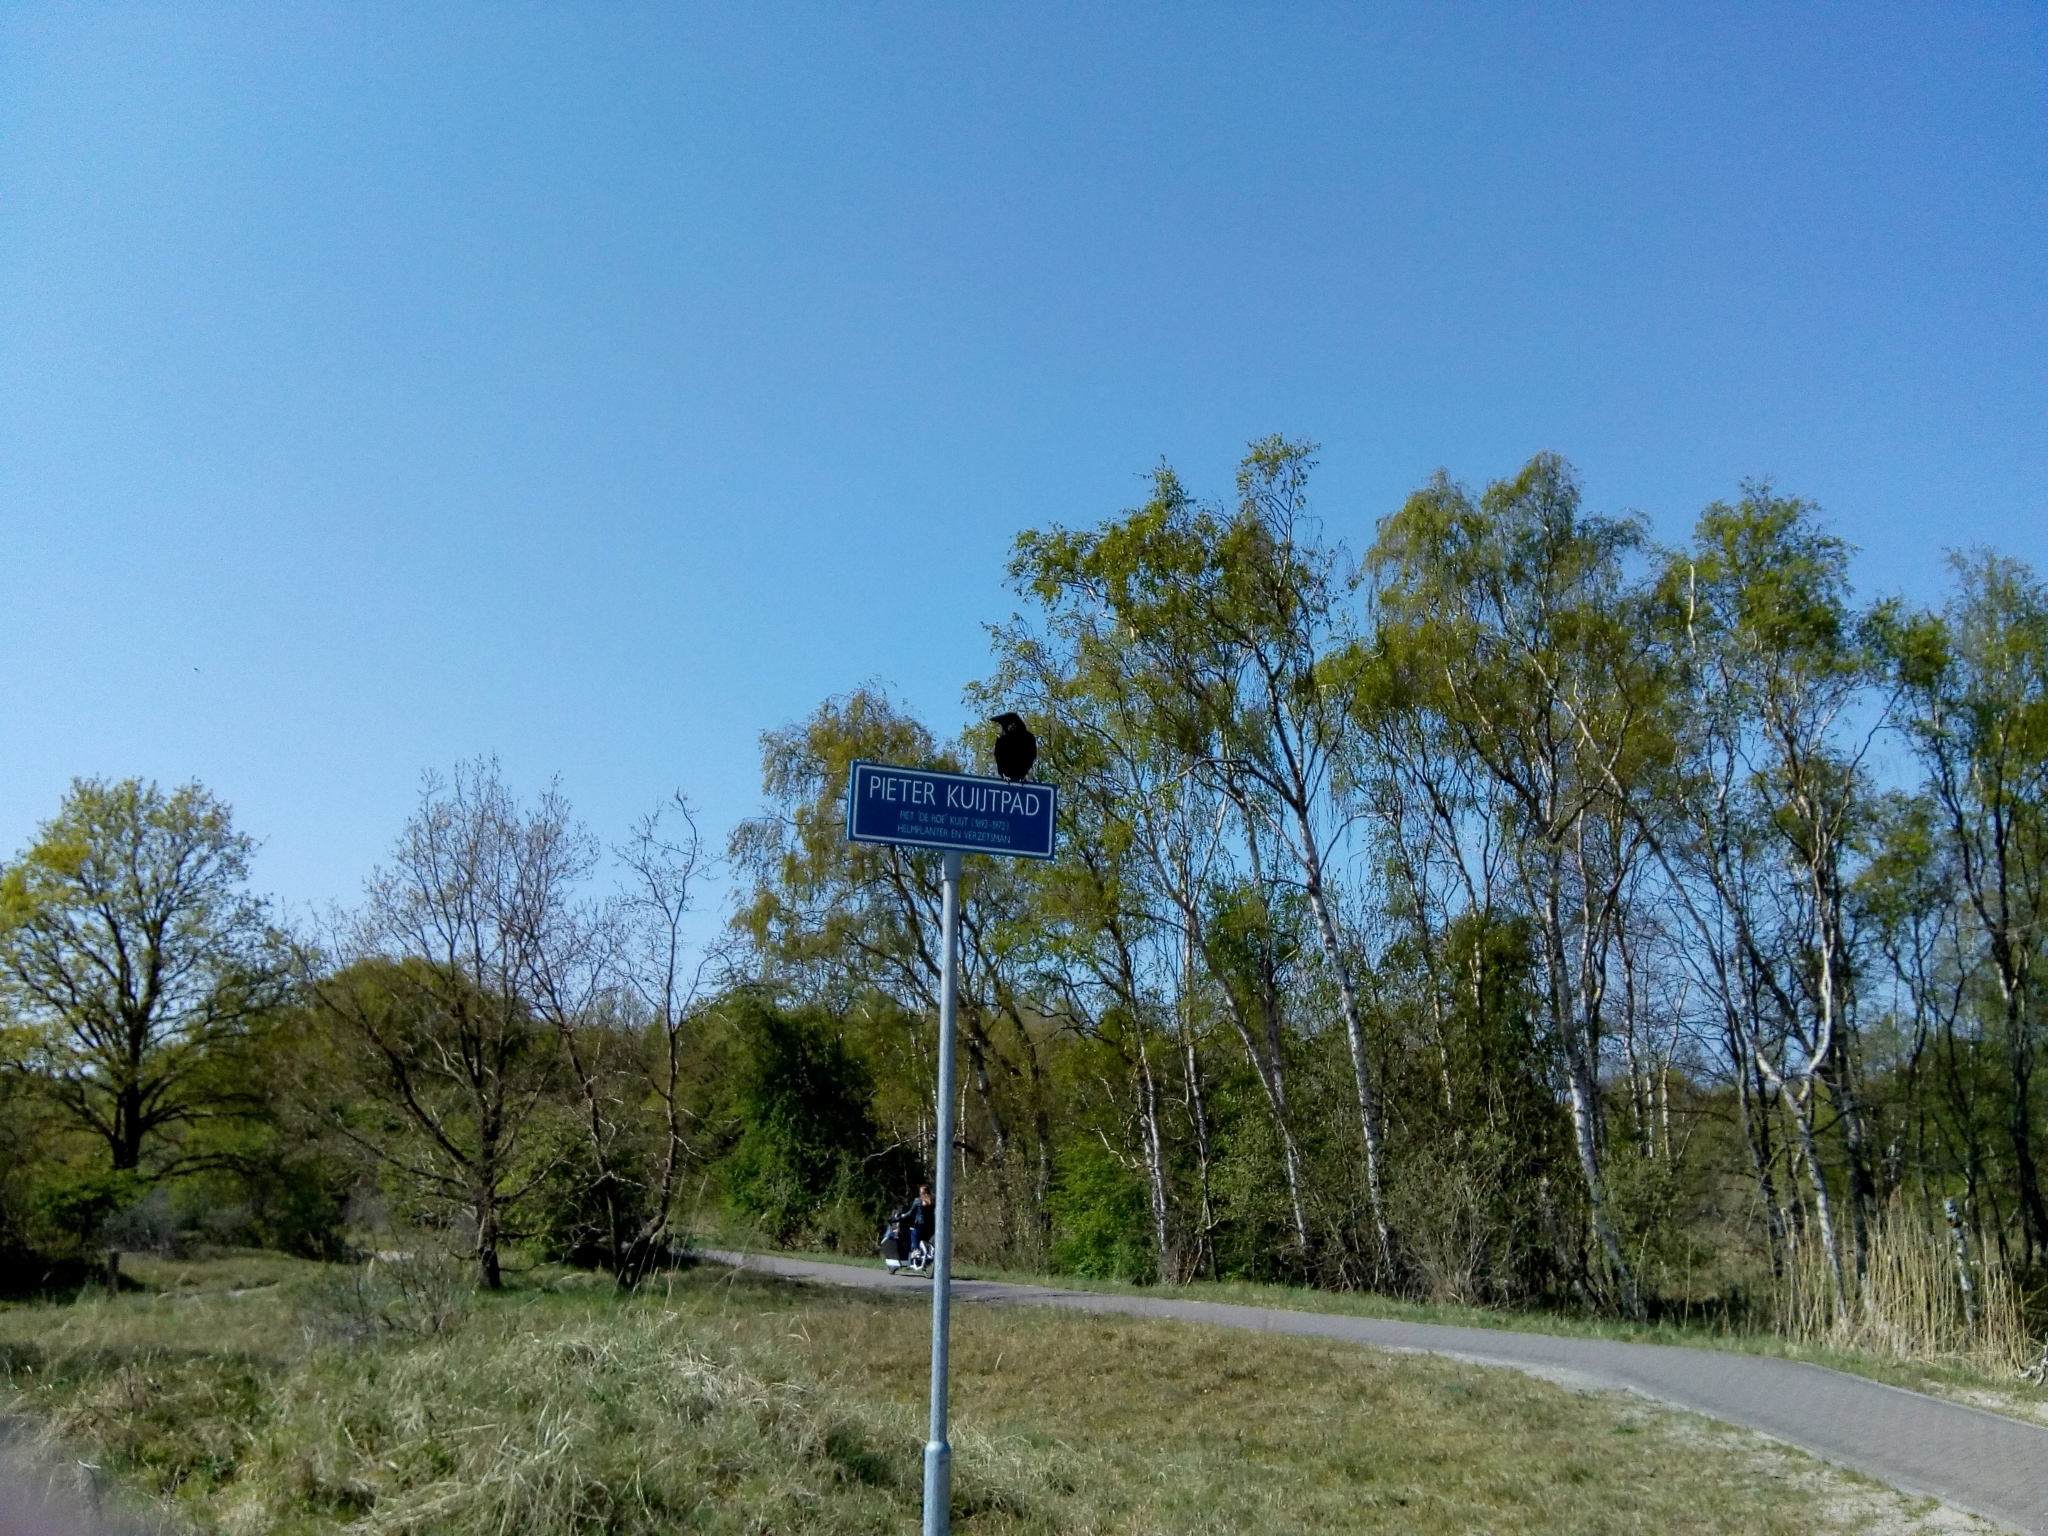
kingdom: Animalia
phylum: Chordata
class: Aves
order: Passeriformes
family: Corvidae
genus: Corvus
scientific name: Corvus corone
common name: Carrion crow
